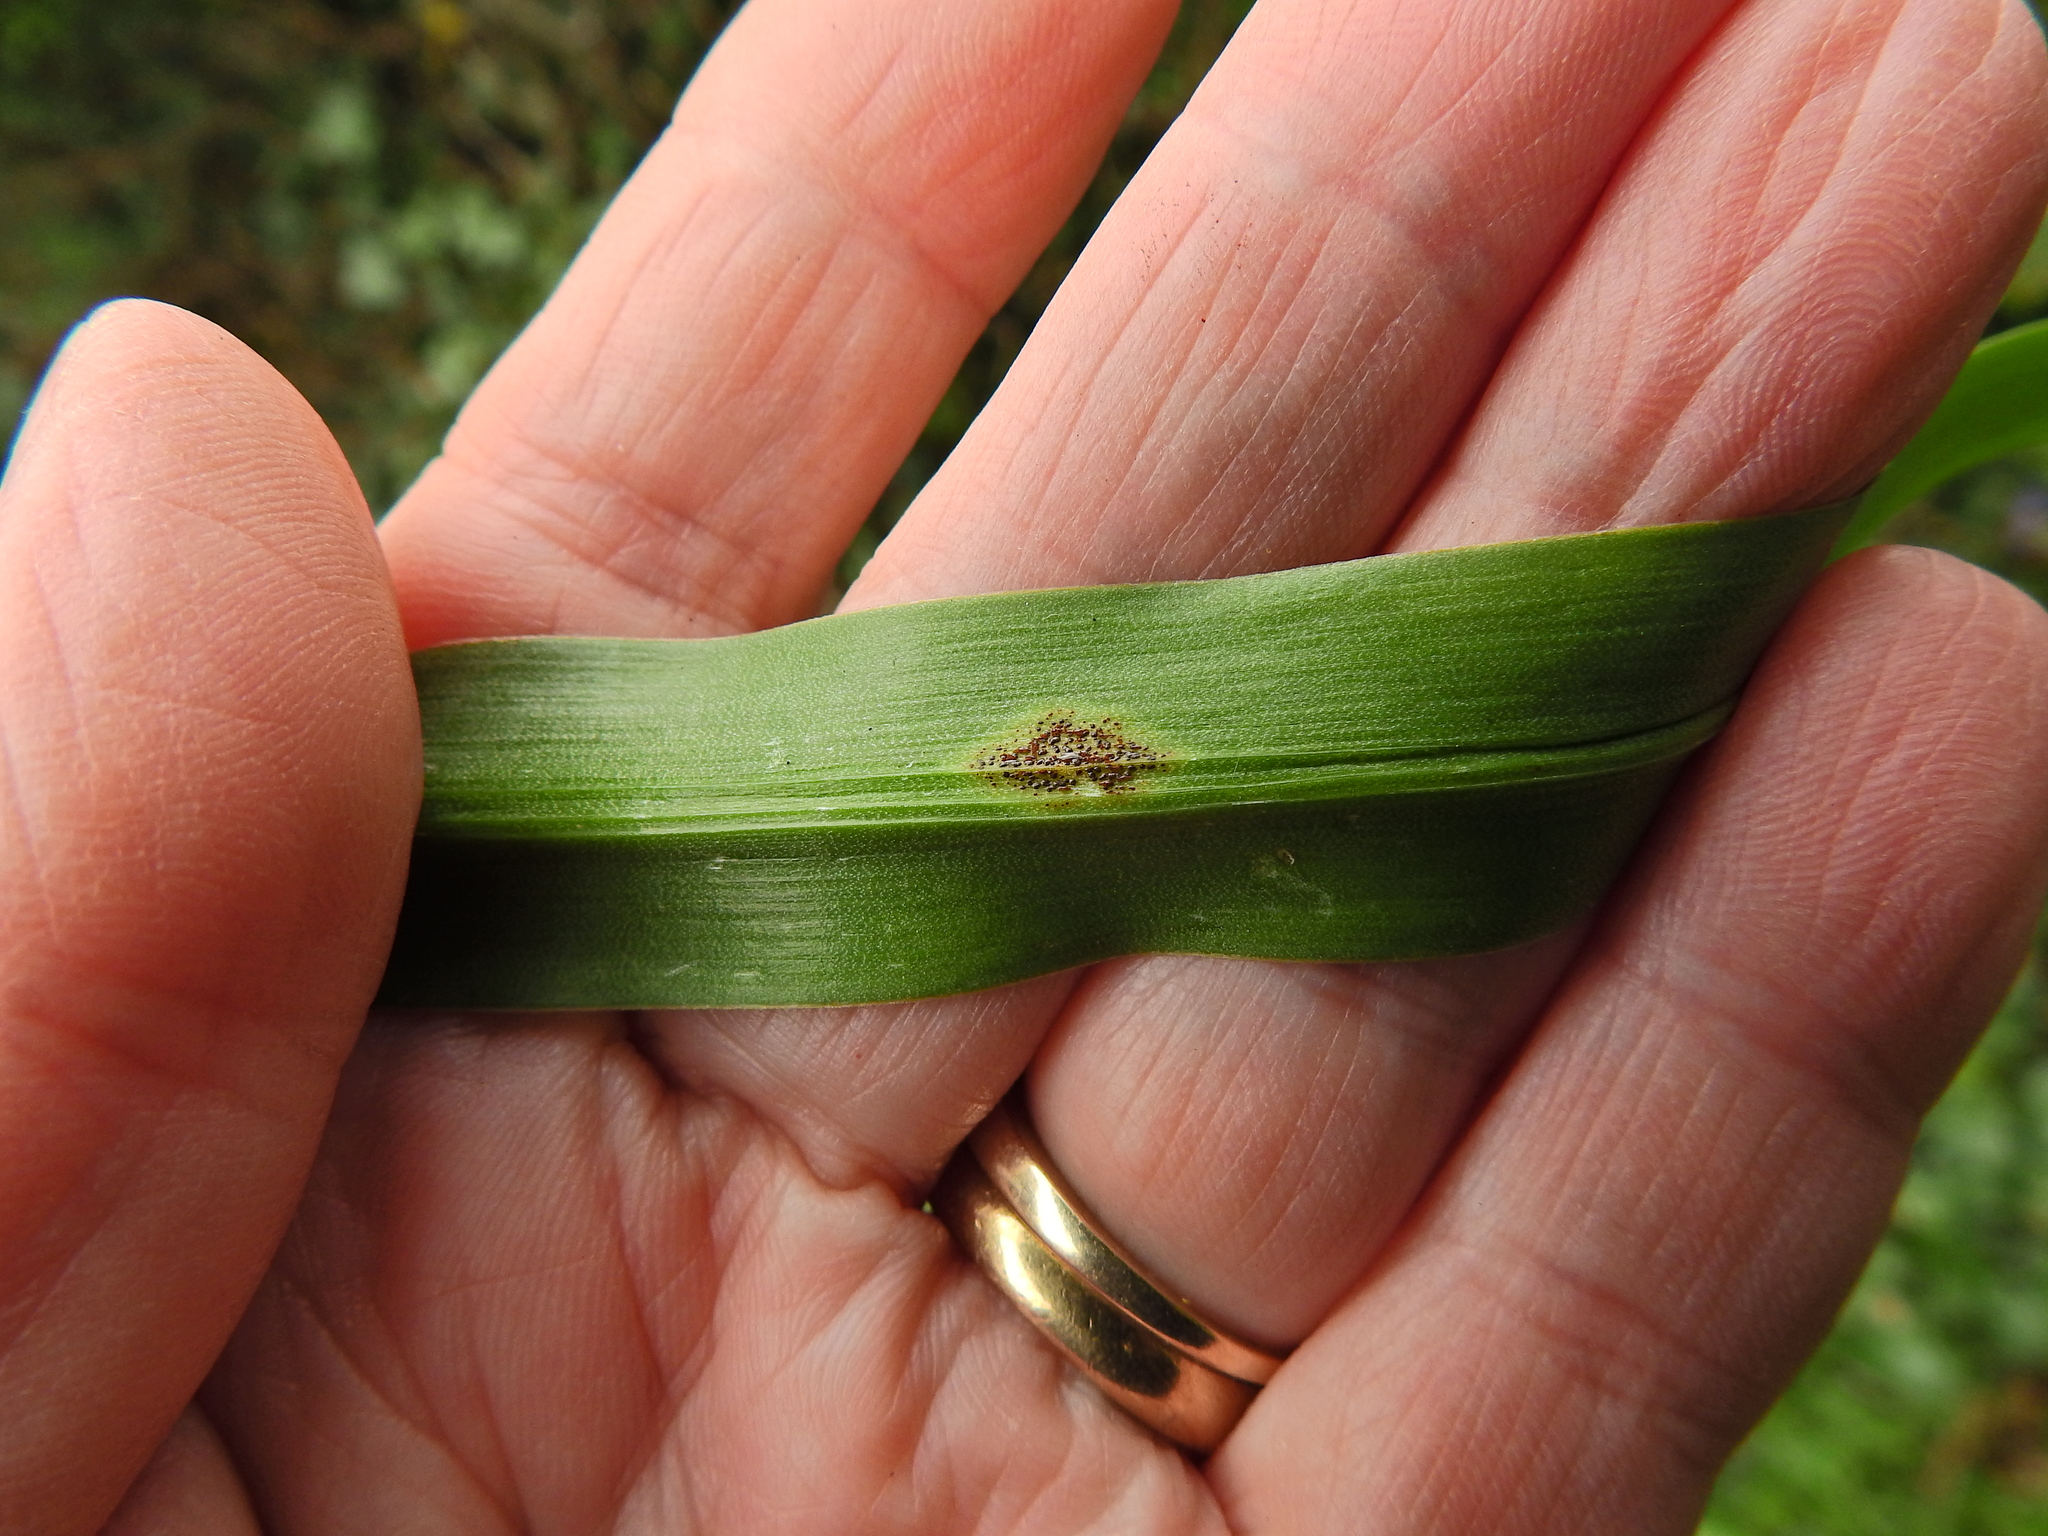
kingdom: Fungi
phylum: Basidiomycota
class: Pucciniomycetes
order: Pucciniales
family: Pucciniaceae
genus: Uromyces
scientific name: Uromyces hyacinthi
